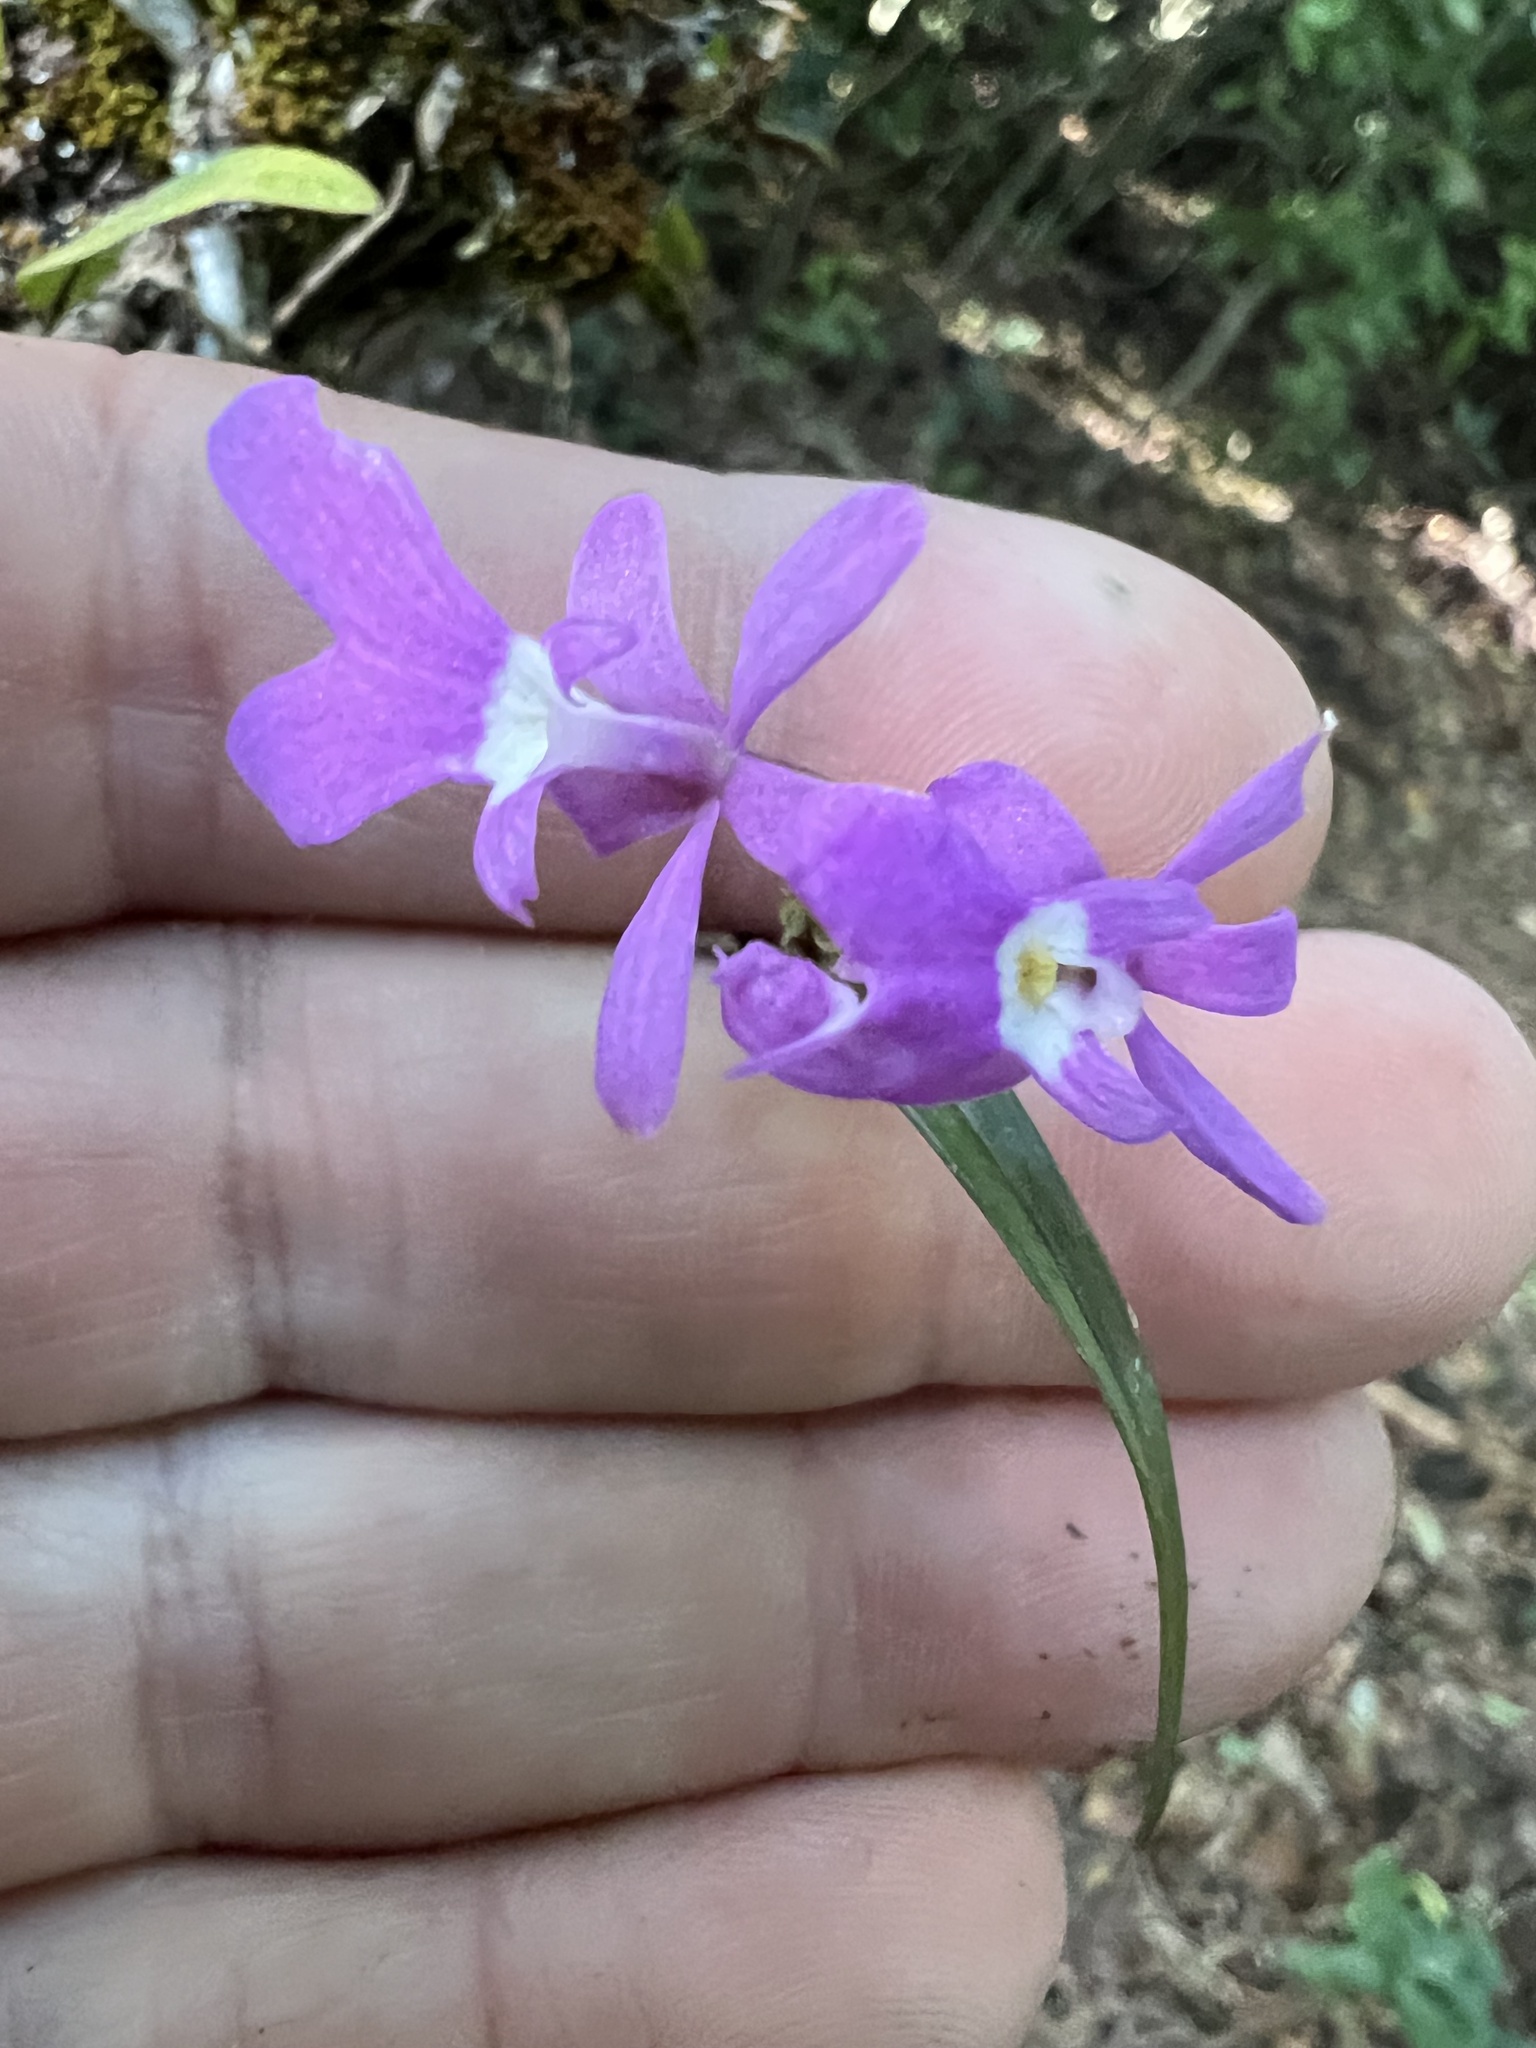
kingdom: Plantae
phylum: Tracheophyta
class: Liliopsida
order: Asparagales
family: Orchidaceae
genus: Epidendrum
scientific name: Epidendrum centropetalum
